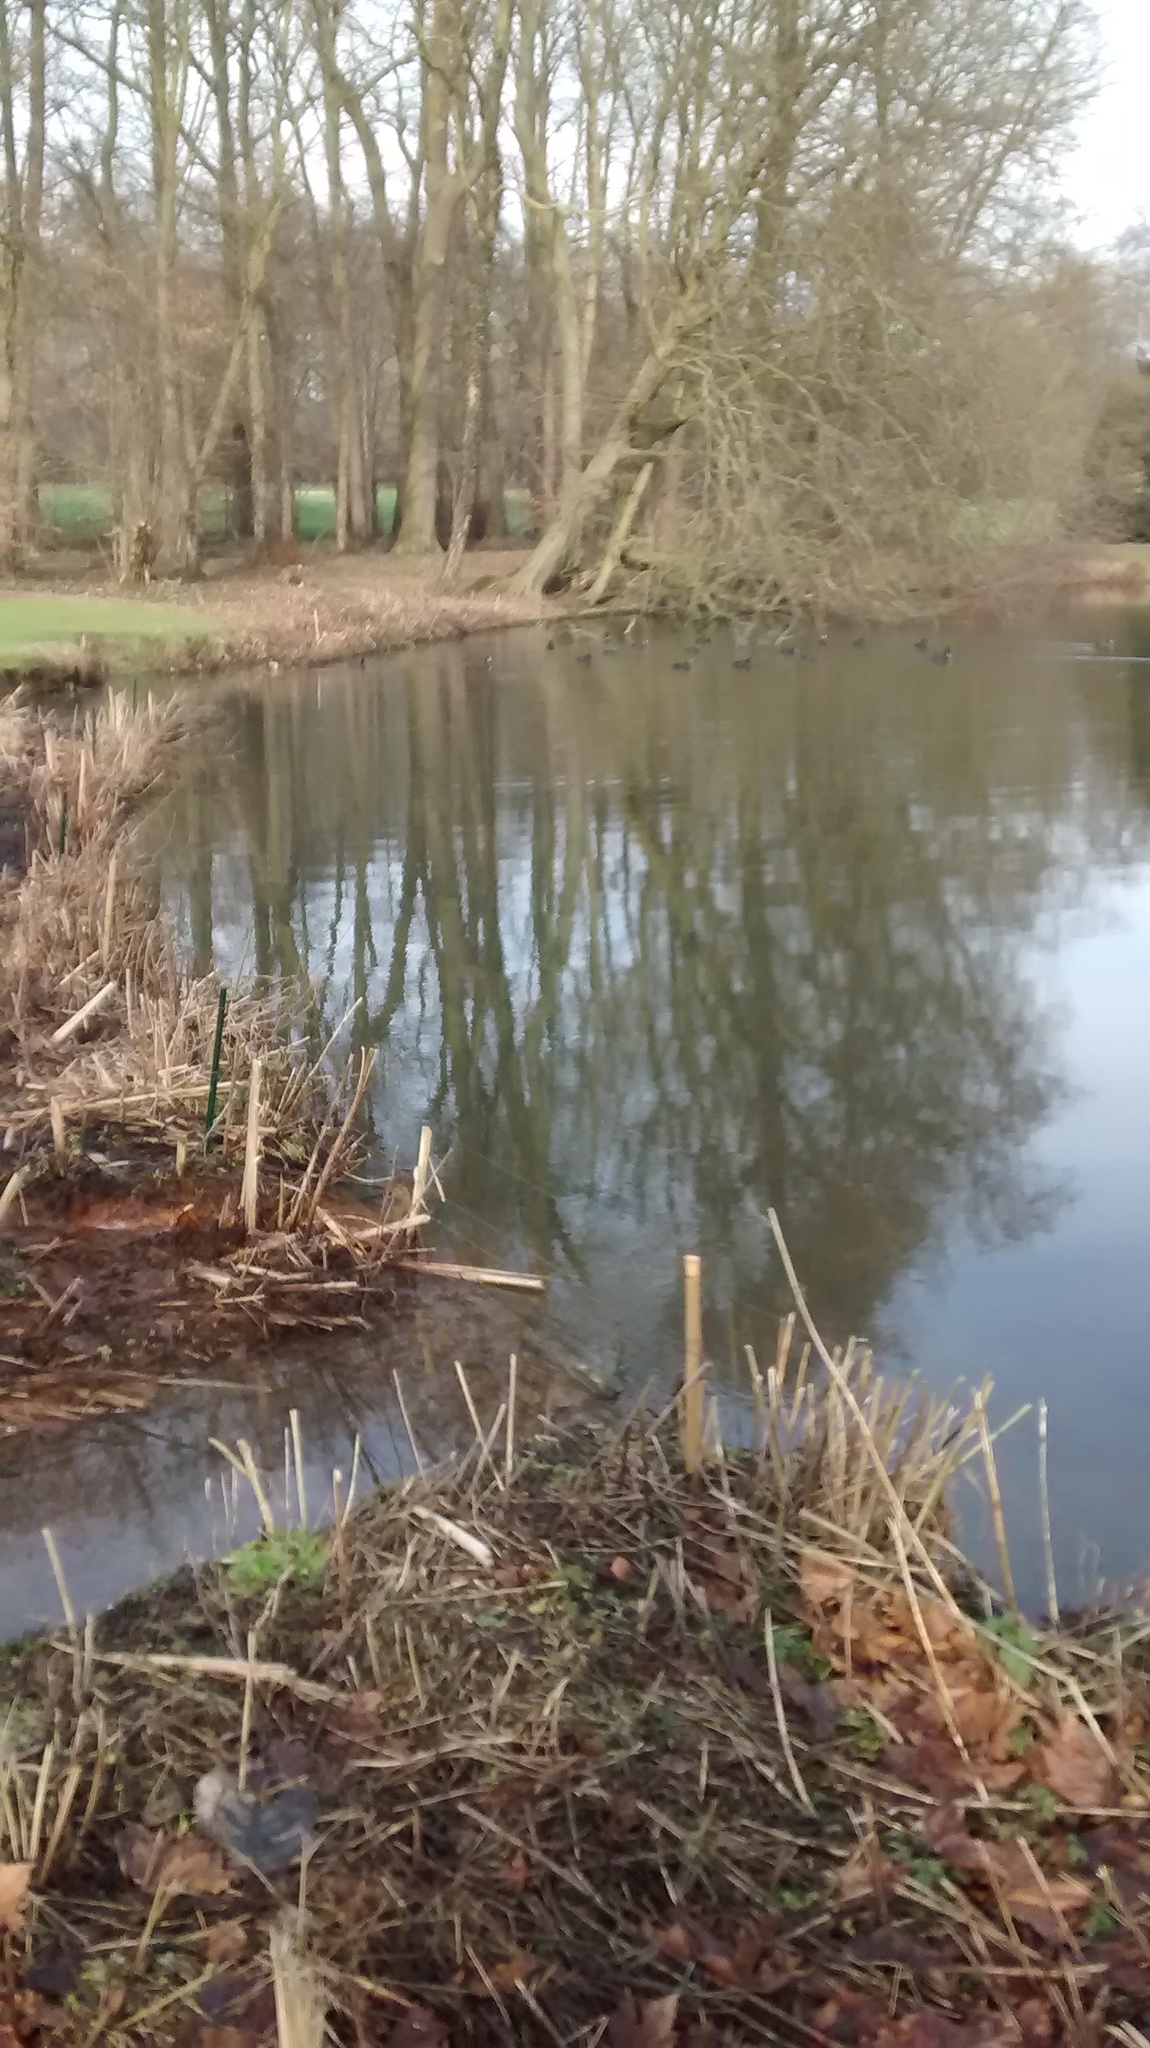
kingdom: Animalia
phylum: Chordata
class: Aves
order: Gruiformes
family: Rallidae
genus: Fulica
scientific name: Fulica atra
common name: Eurasian coot
